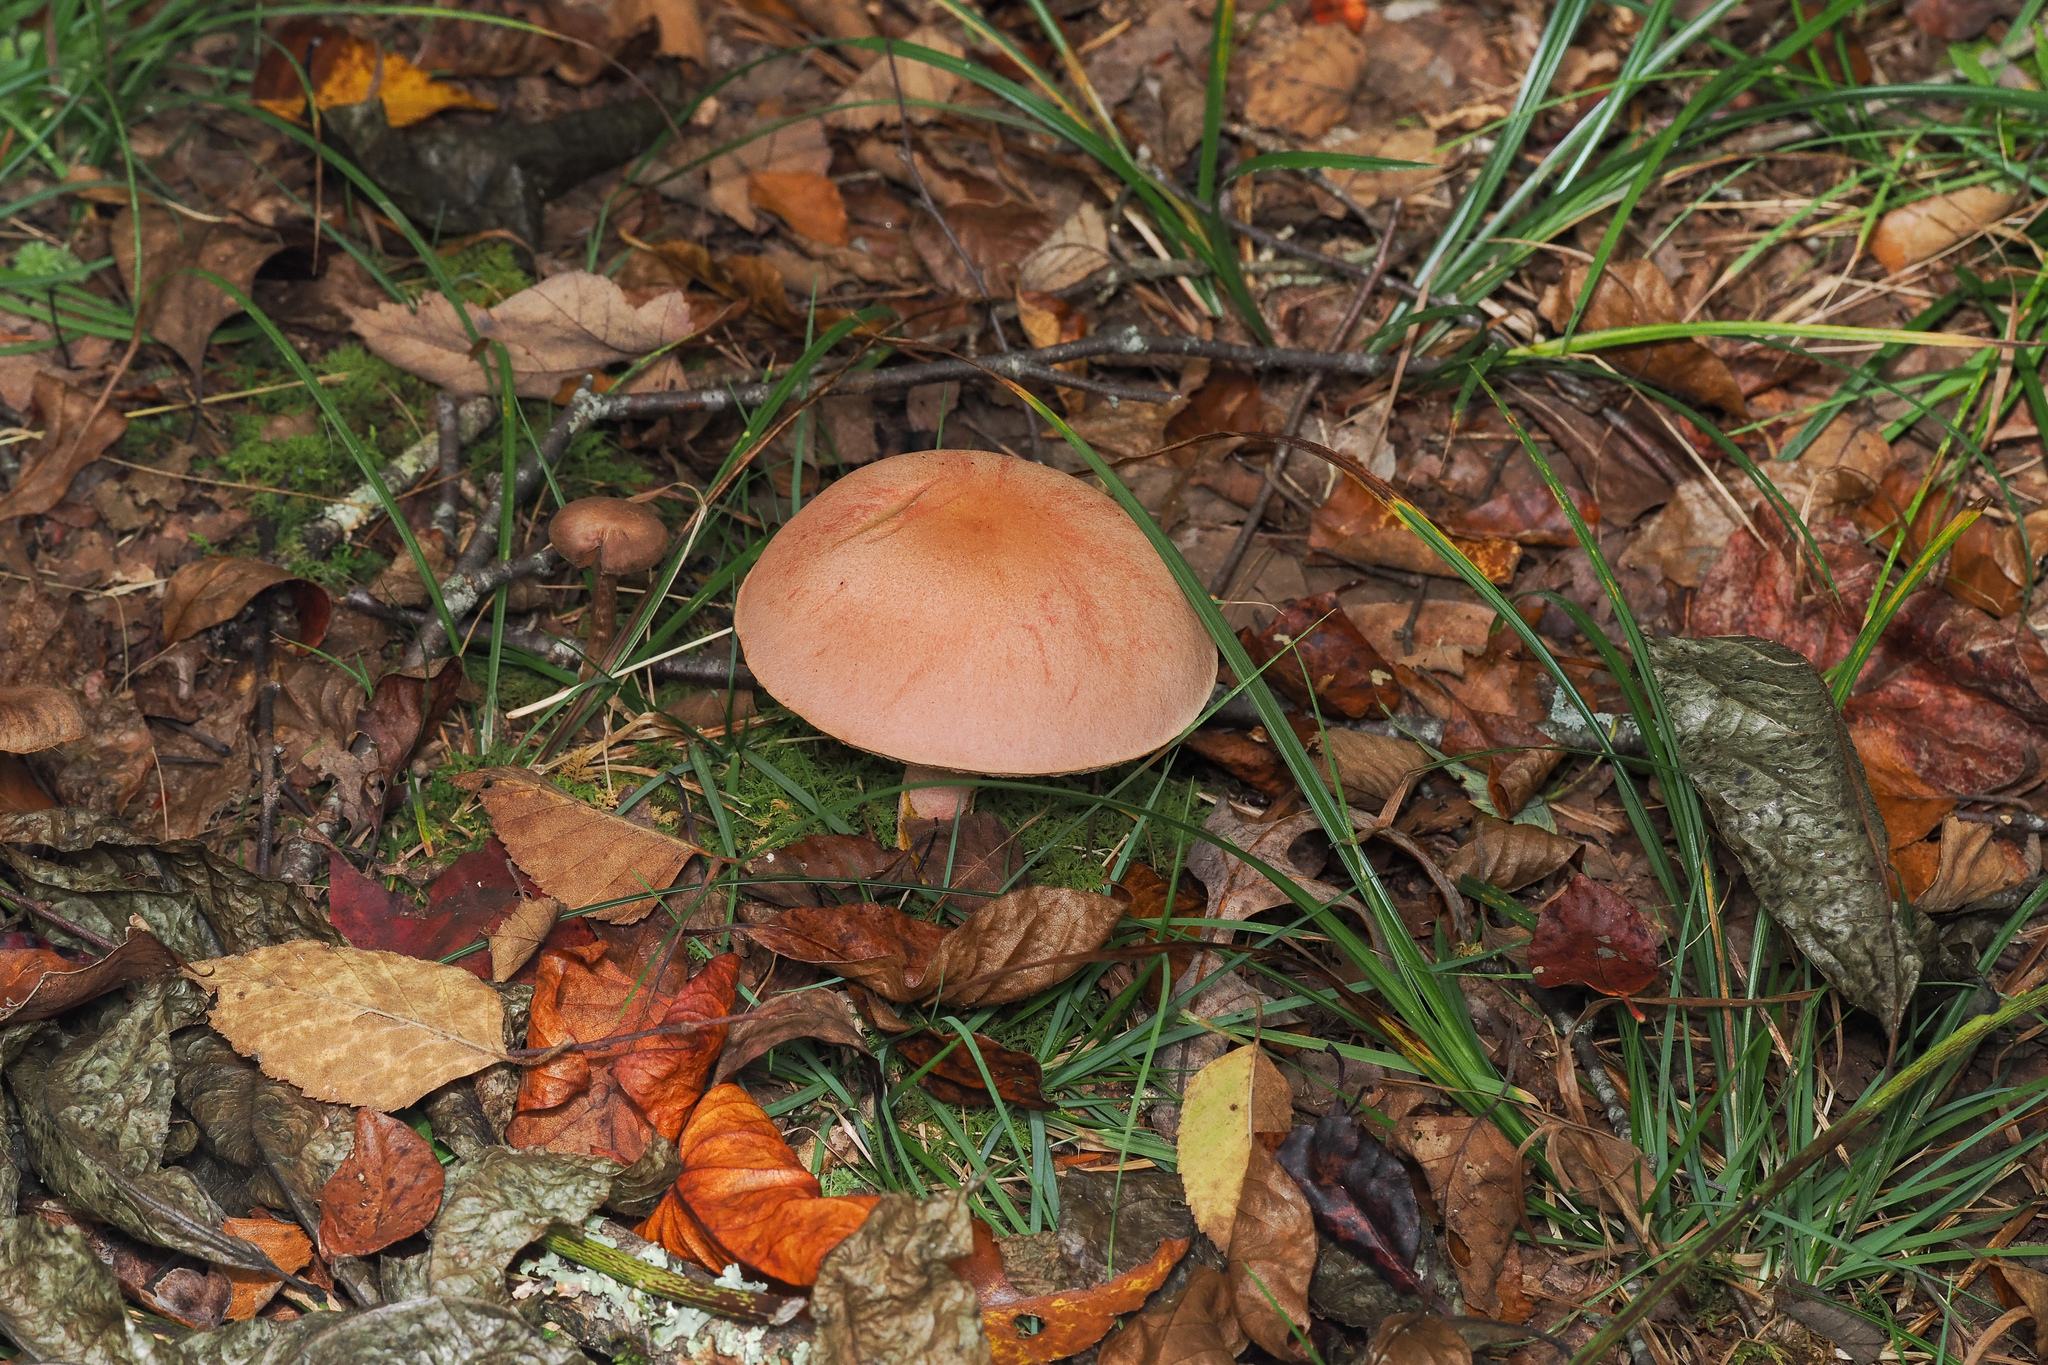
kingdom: Fungi
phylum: Basidiomycota
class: Agaricomycetes
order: Boletales
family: Boletaceae
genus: Harrya
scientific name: Harrya chromipes
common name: Chrome-footed bolete
